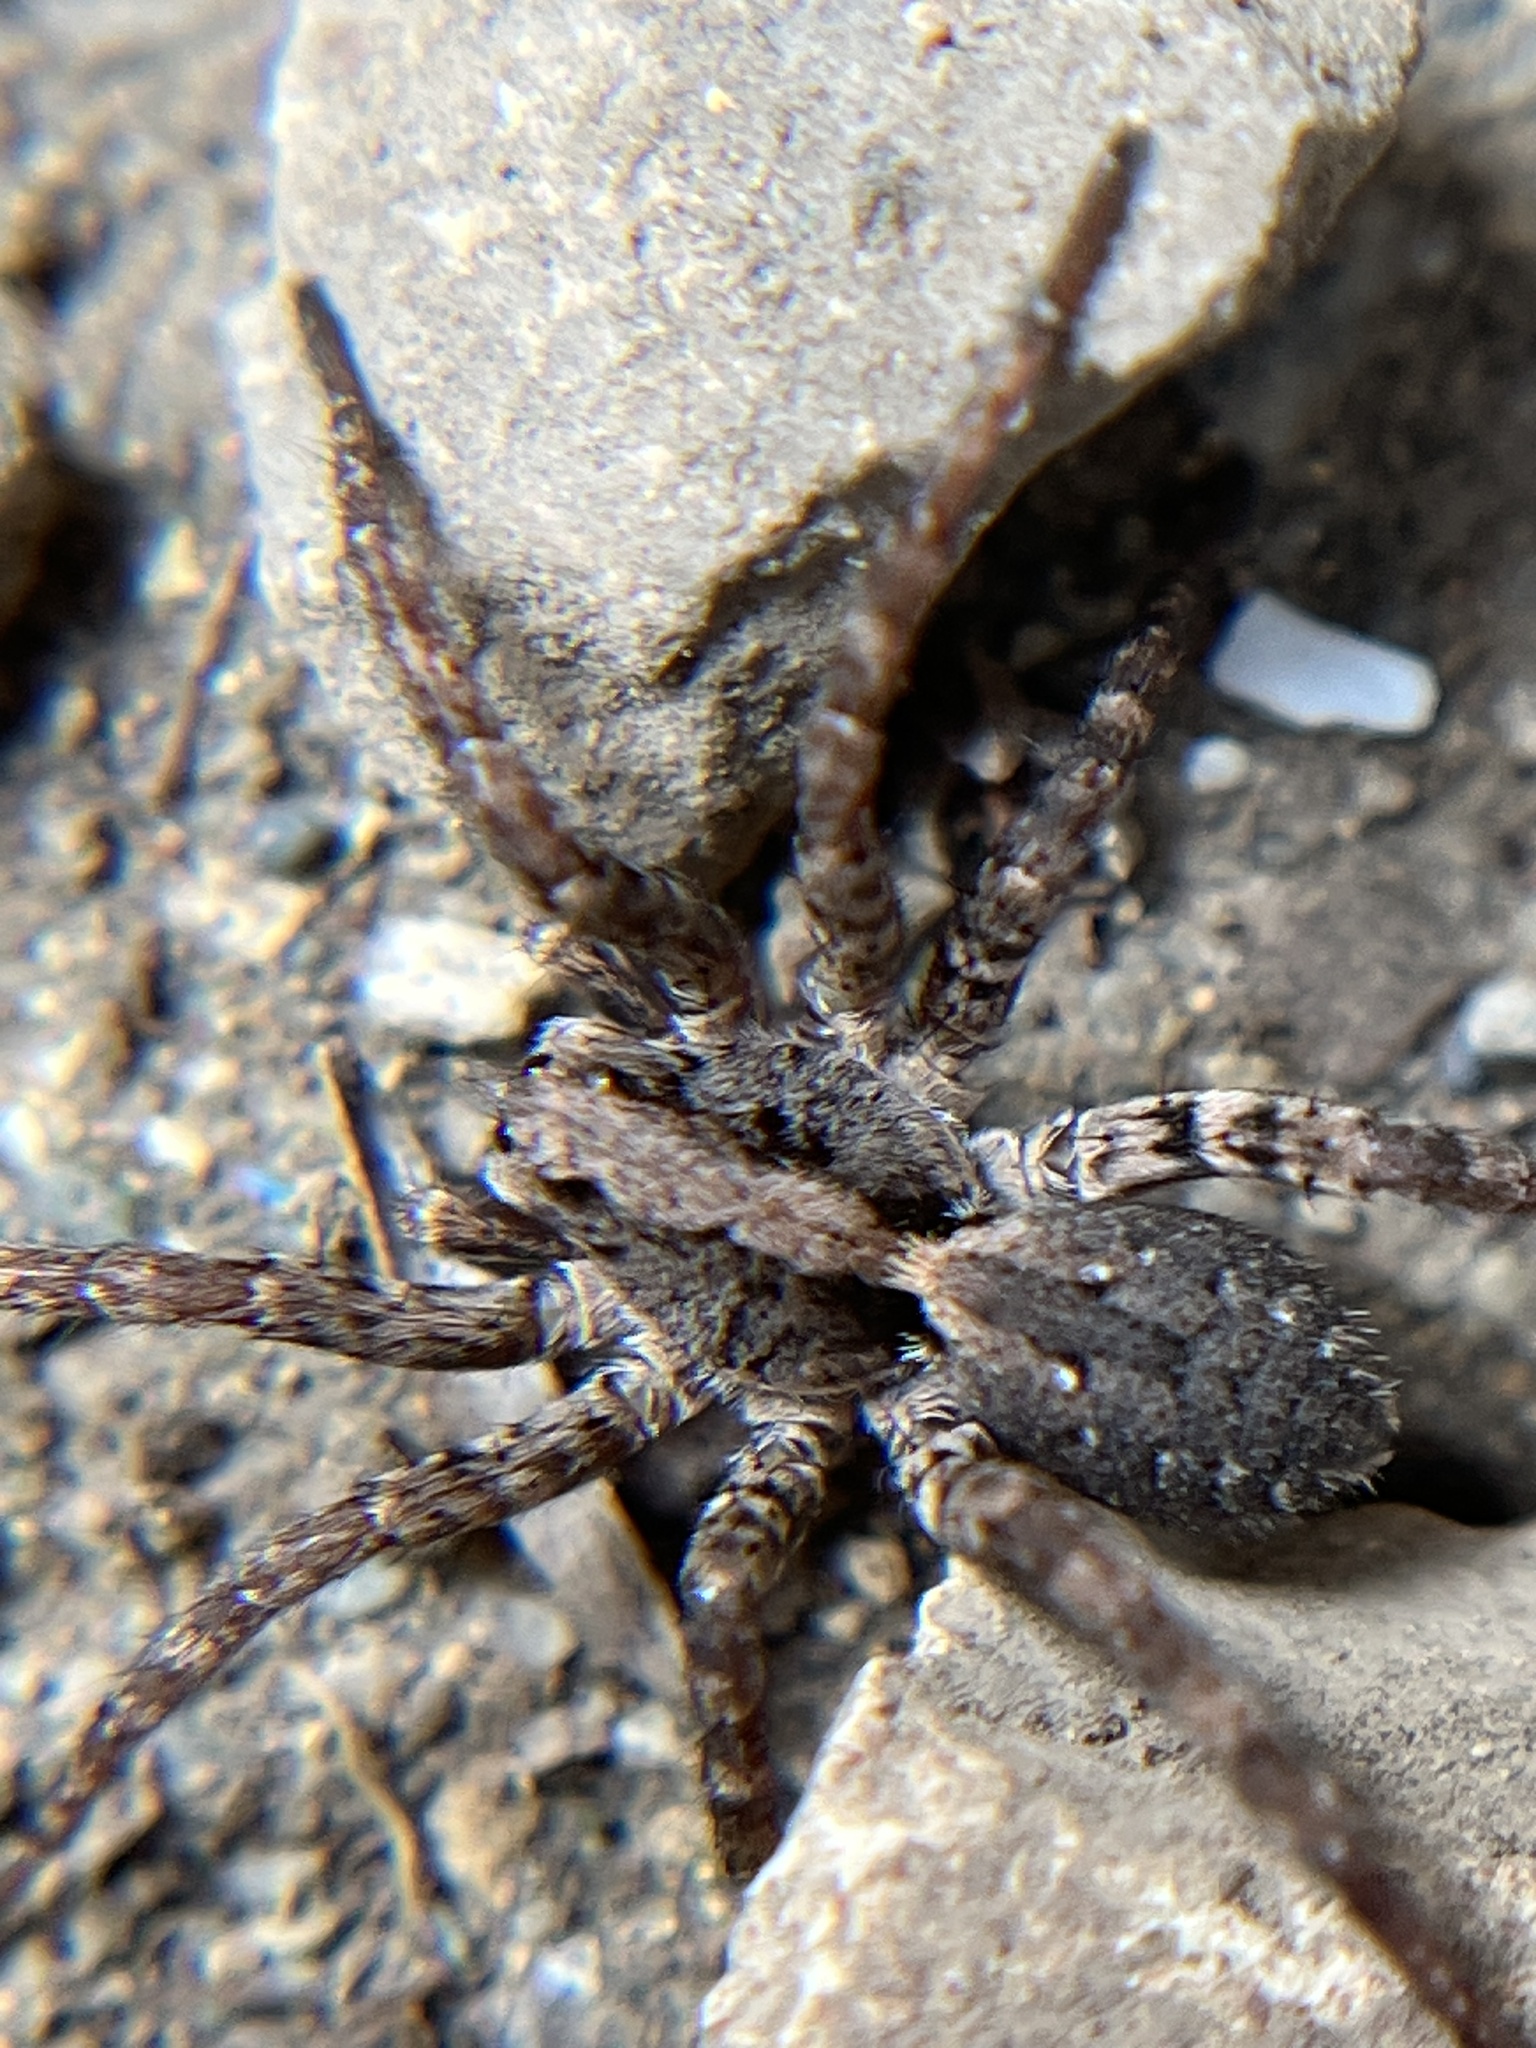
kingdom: Animalia
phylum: Arthropoda
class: Arachnida
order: Araneae
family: Lycosidae
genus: Alopecosa
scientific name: Alopecosa kochi
